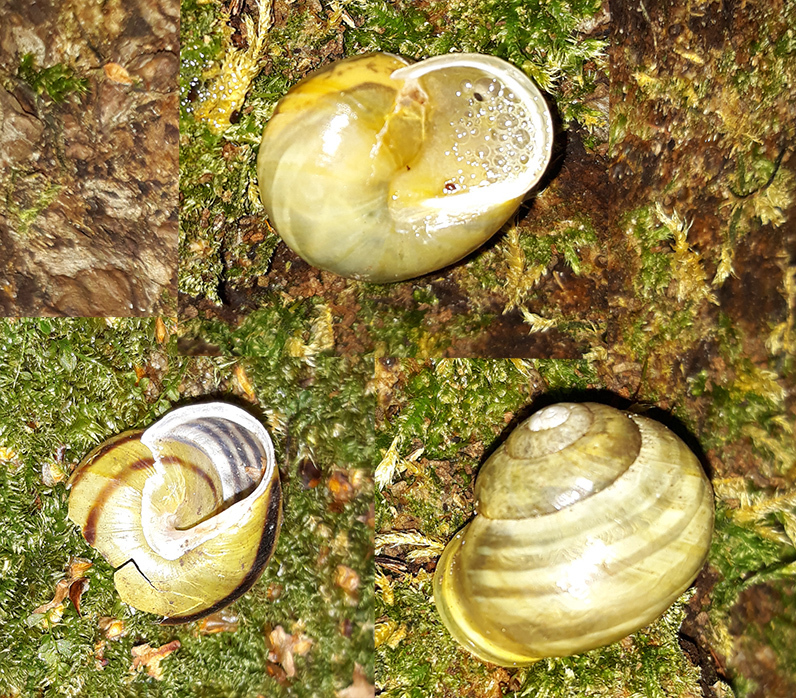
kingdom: Animalia
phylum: Mollusca
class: Gastropoda
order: Stylommatophora
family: Helicidae
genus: Cepaea
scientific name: Cepaea hortensis
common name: White-lip gardensnail
